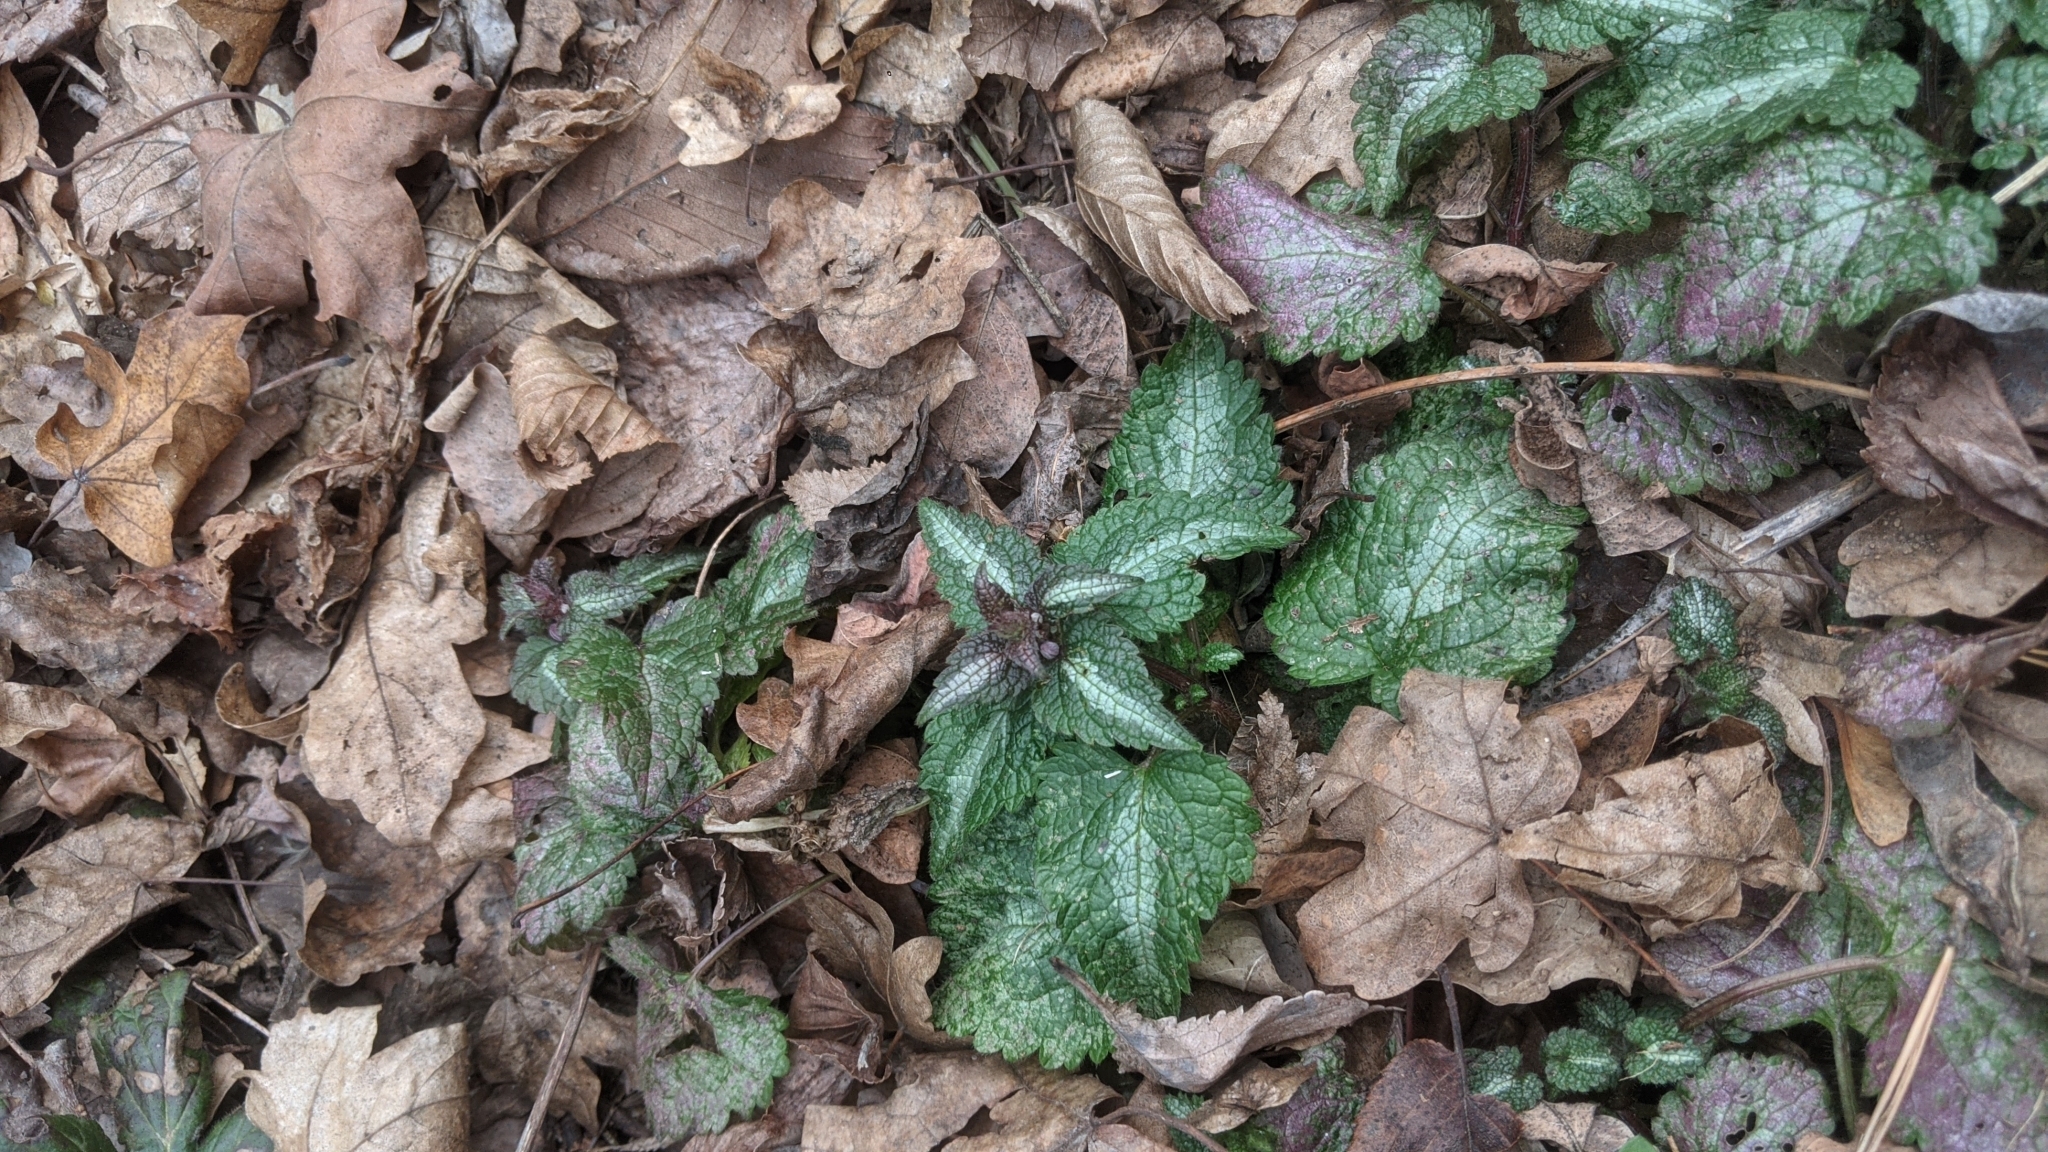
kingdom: Plantae
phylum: Tracheophyta
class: Magnoliopsida
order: Lamiales
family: Lamiaceae
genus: Lamium
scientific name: Lamium maculatum
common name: Spotted dead-nettle
